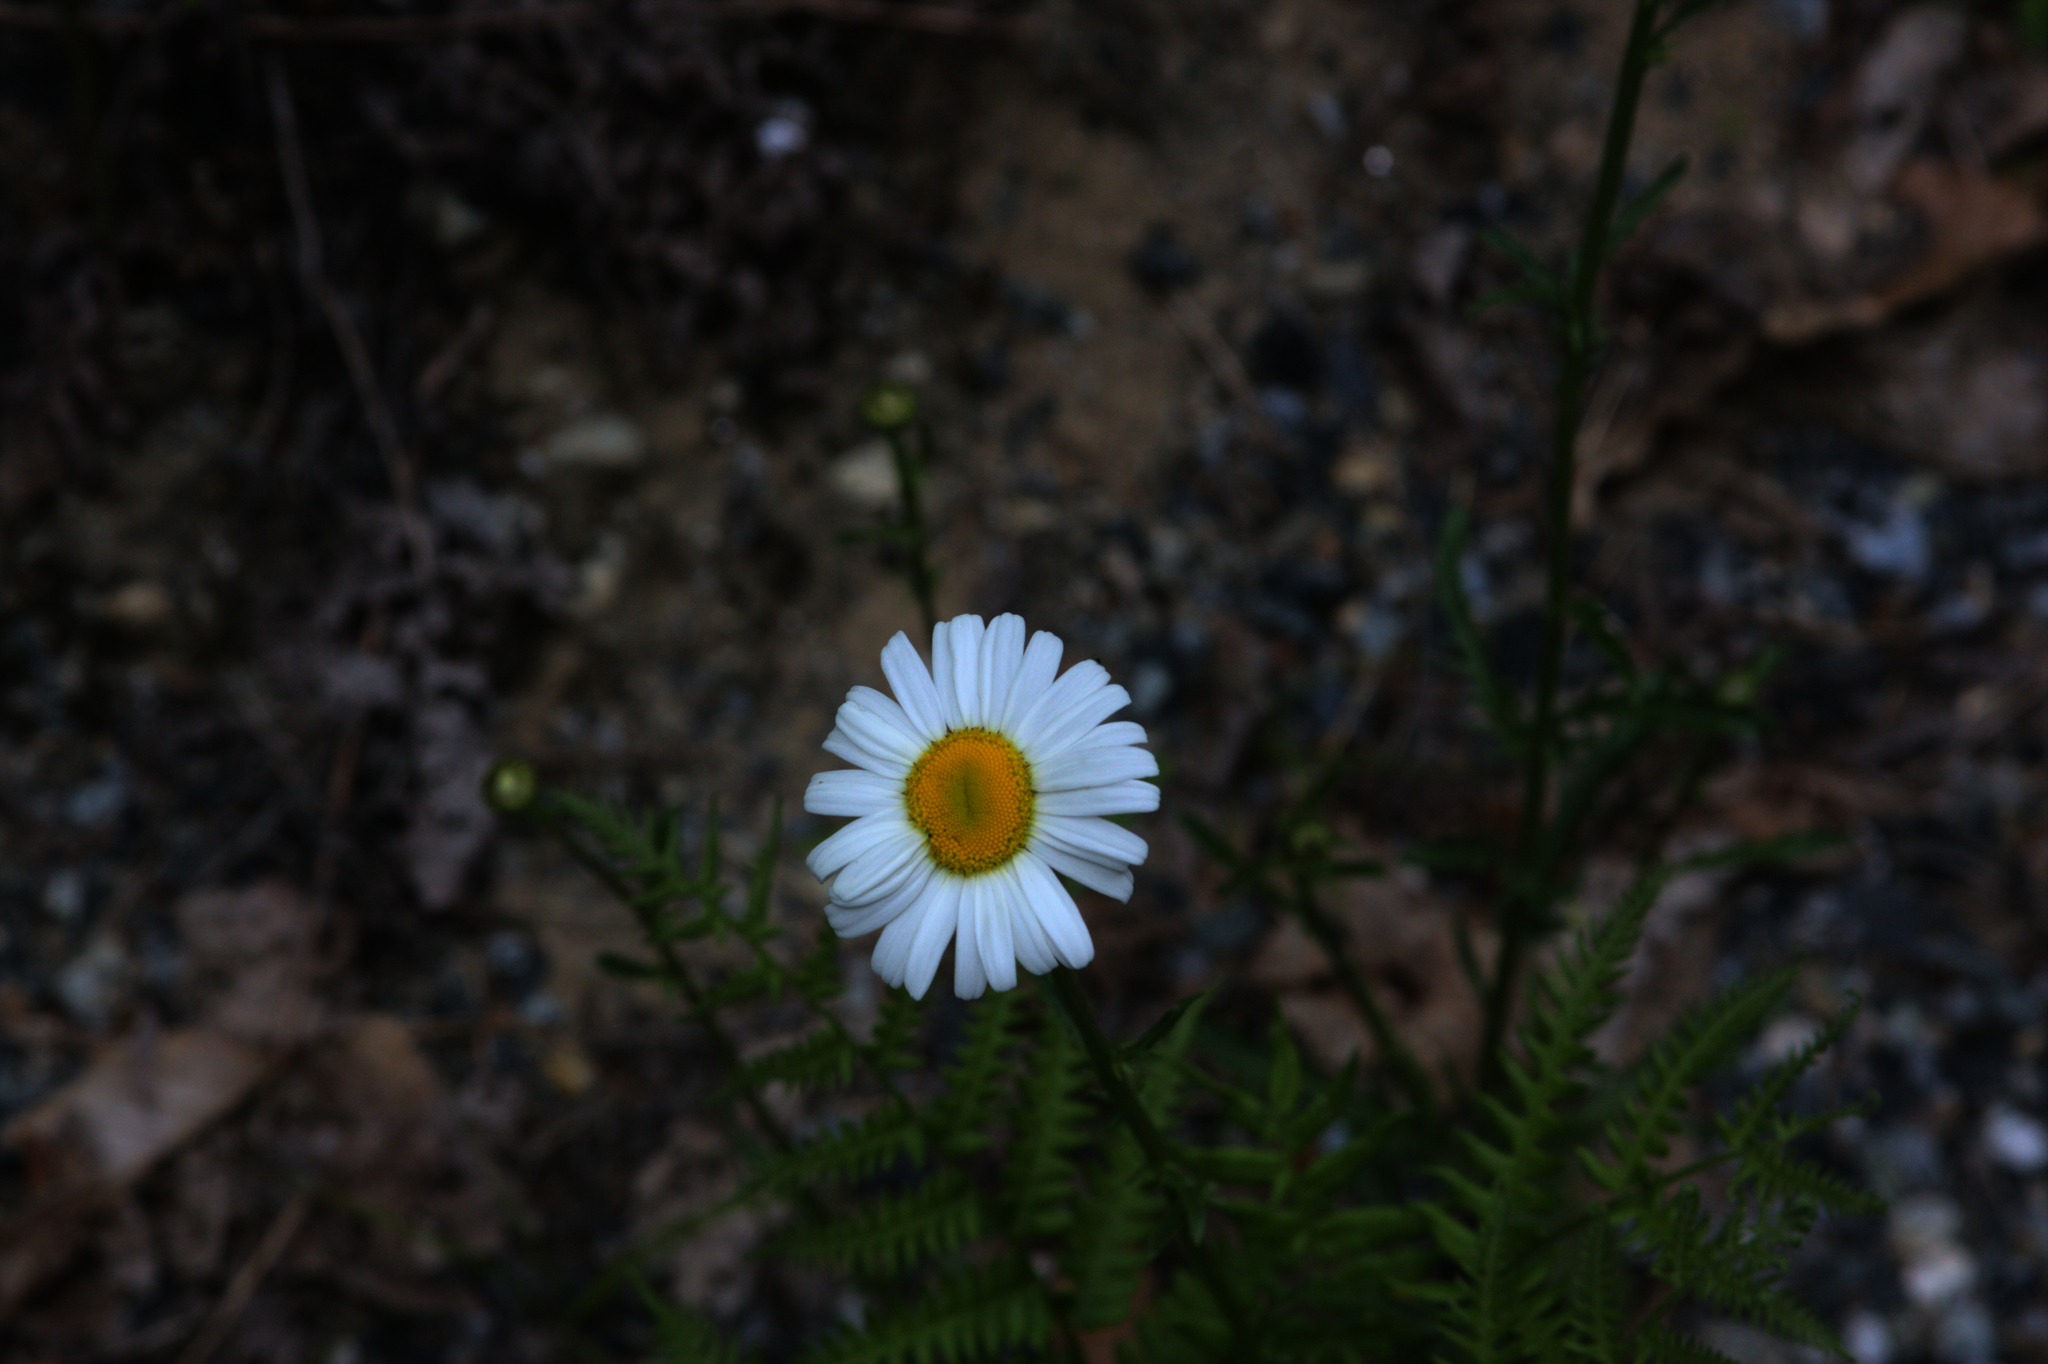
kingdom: Plantae
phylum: Tracheophyta
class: Magnoliopsida
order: Asterales
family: Asteraceae
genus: Leucanthemum
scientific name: Leucanthemum vulgare
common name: Oxeye daisy
